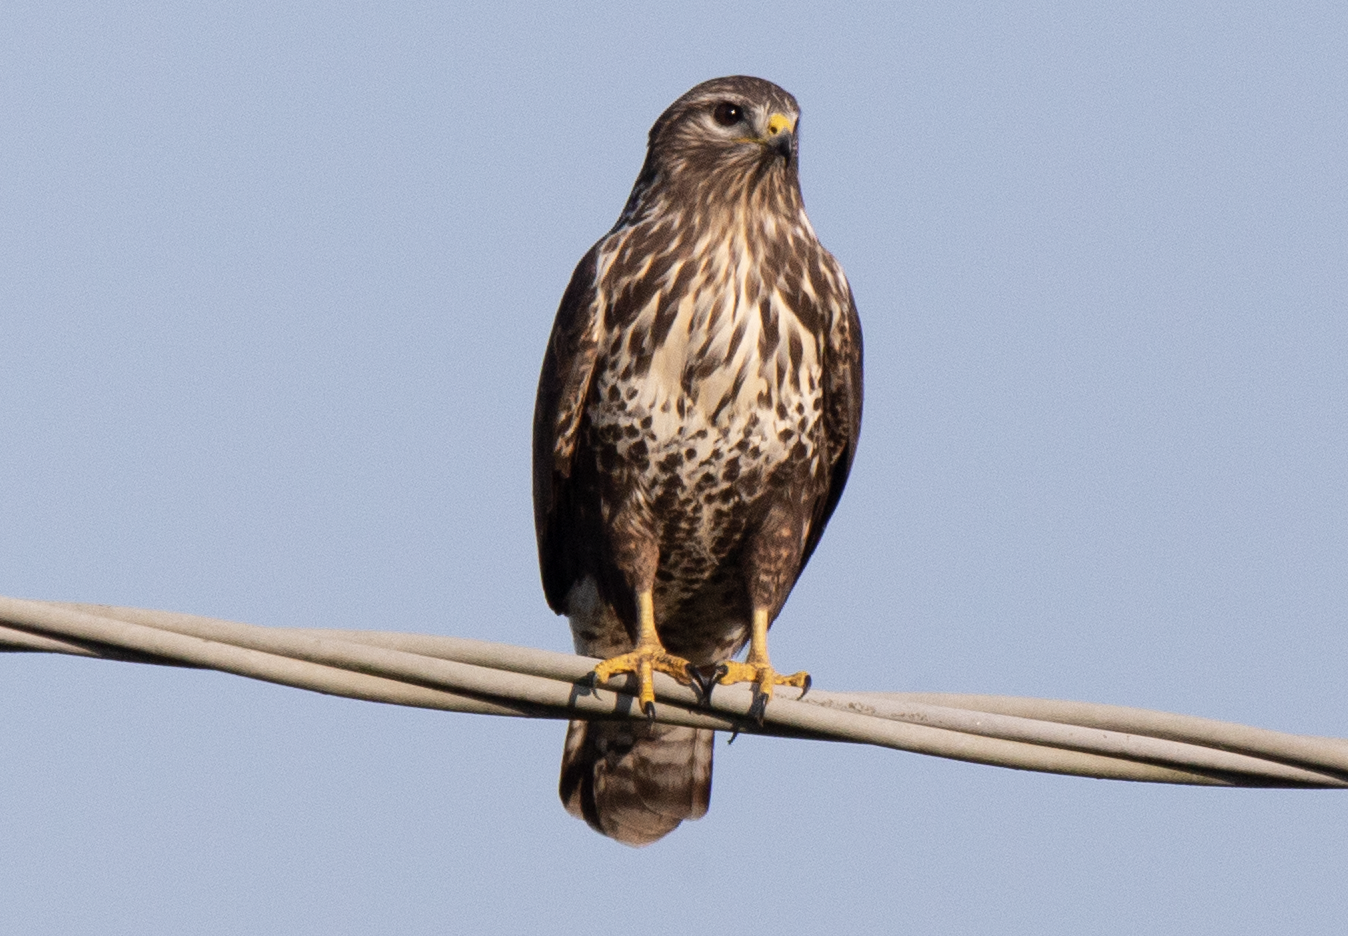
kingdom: Animalia
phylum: Chordata
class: Aves
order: Accipitriformes
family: Accipitridae
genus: Buteo
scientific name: Buteo buteo
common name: Common buzzard
